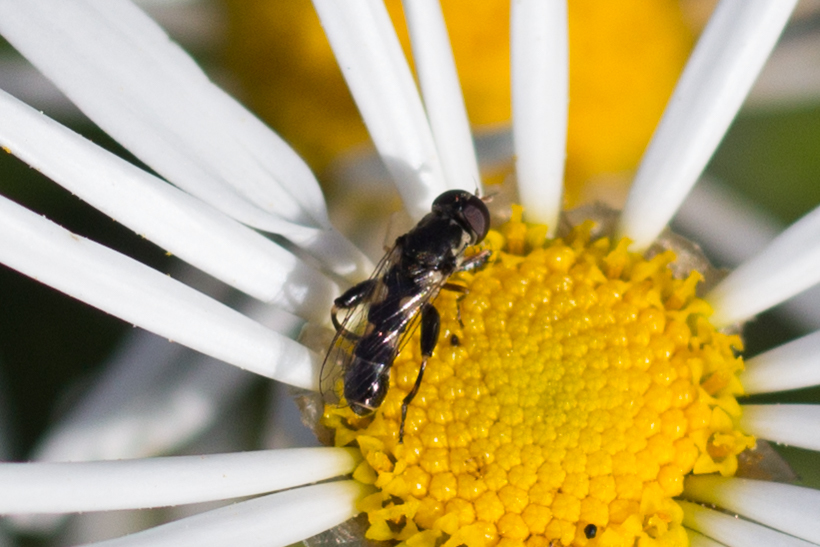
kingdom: Animalia
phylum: Arthropoda
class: Insecta
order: Diptera
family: Syrphidae
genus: Syritta
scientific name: Syritta pipiens
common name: Hover fly
